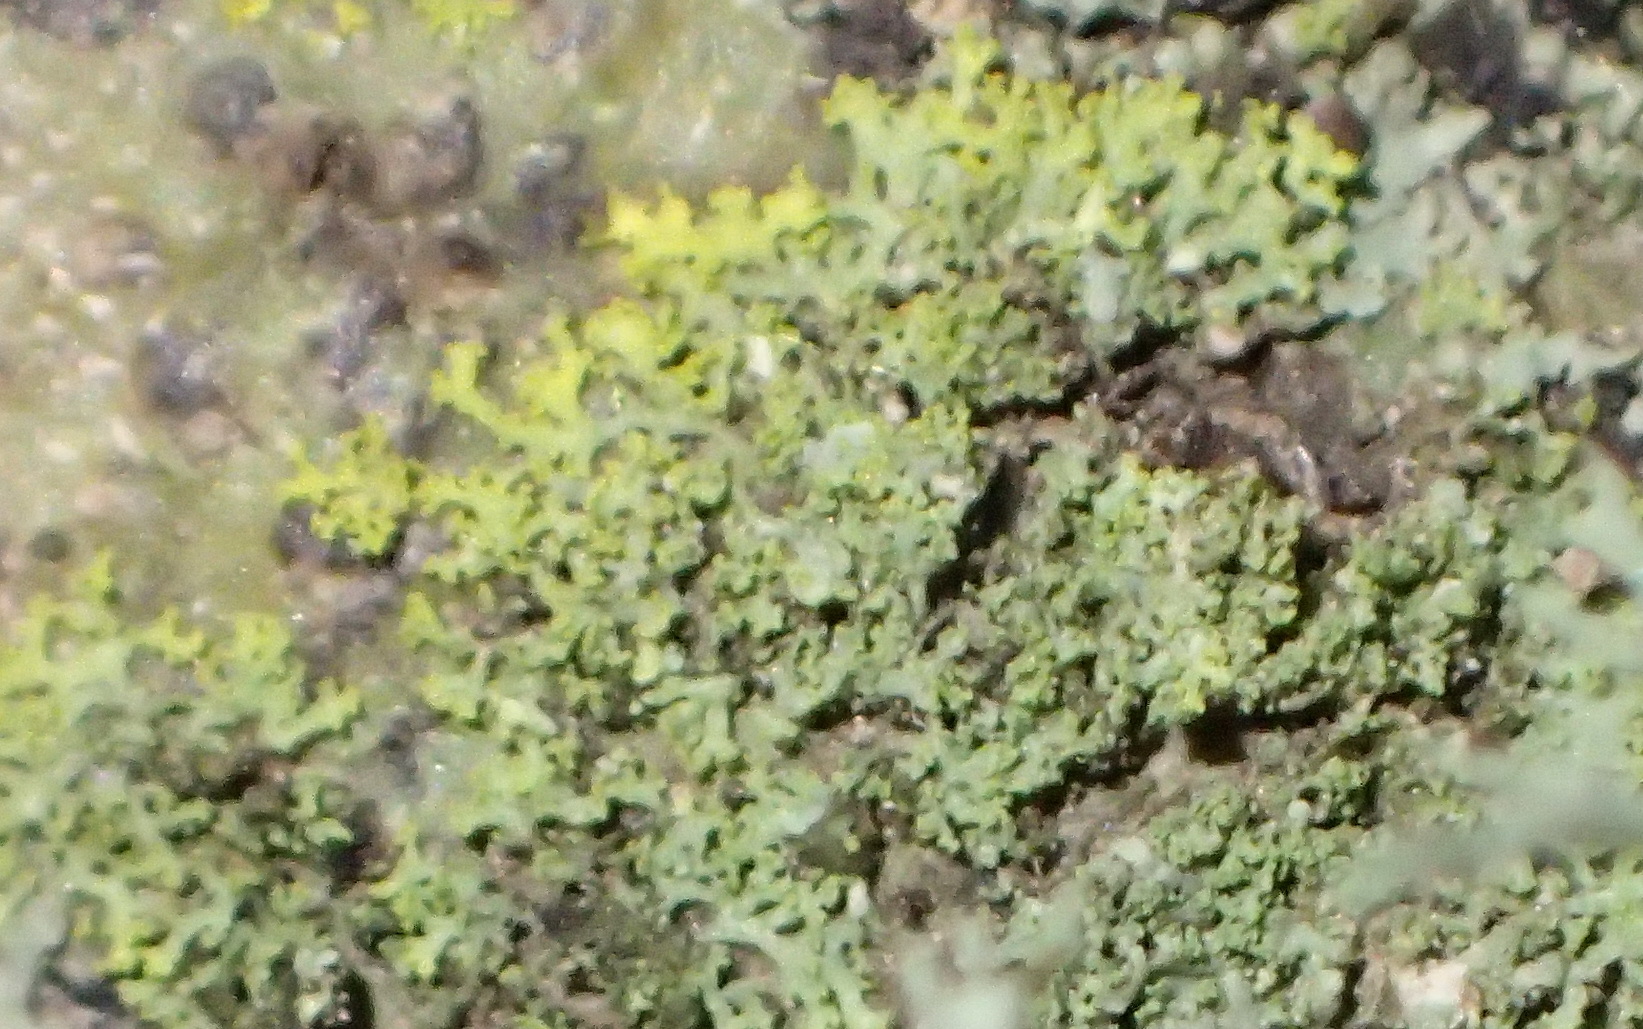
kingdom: Fungi
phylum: Ascomycota
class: Candelariomycetes
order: Candelariales
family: Candelariaceae
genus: Candelaria
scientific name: Candelaria concolor
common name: Candleflame lichen
